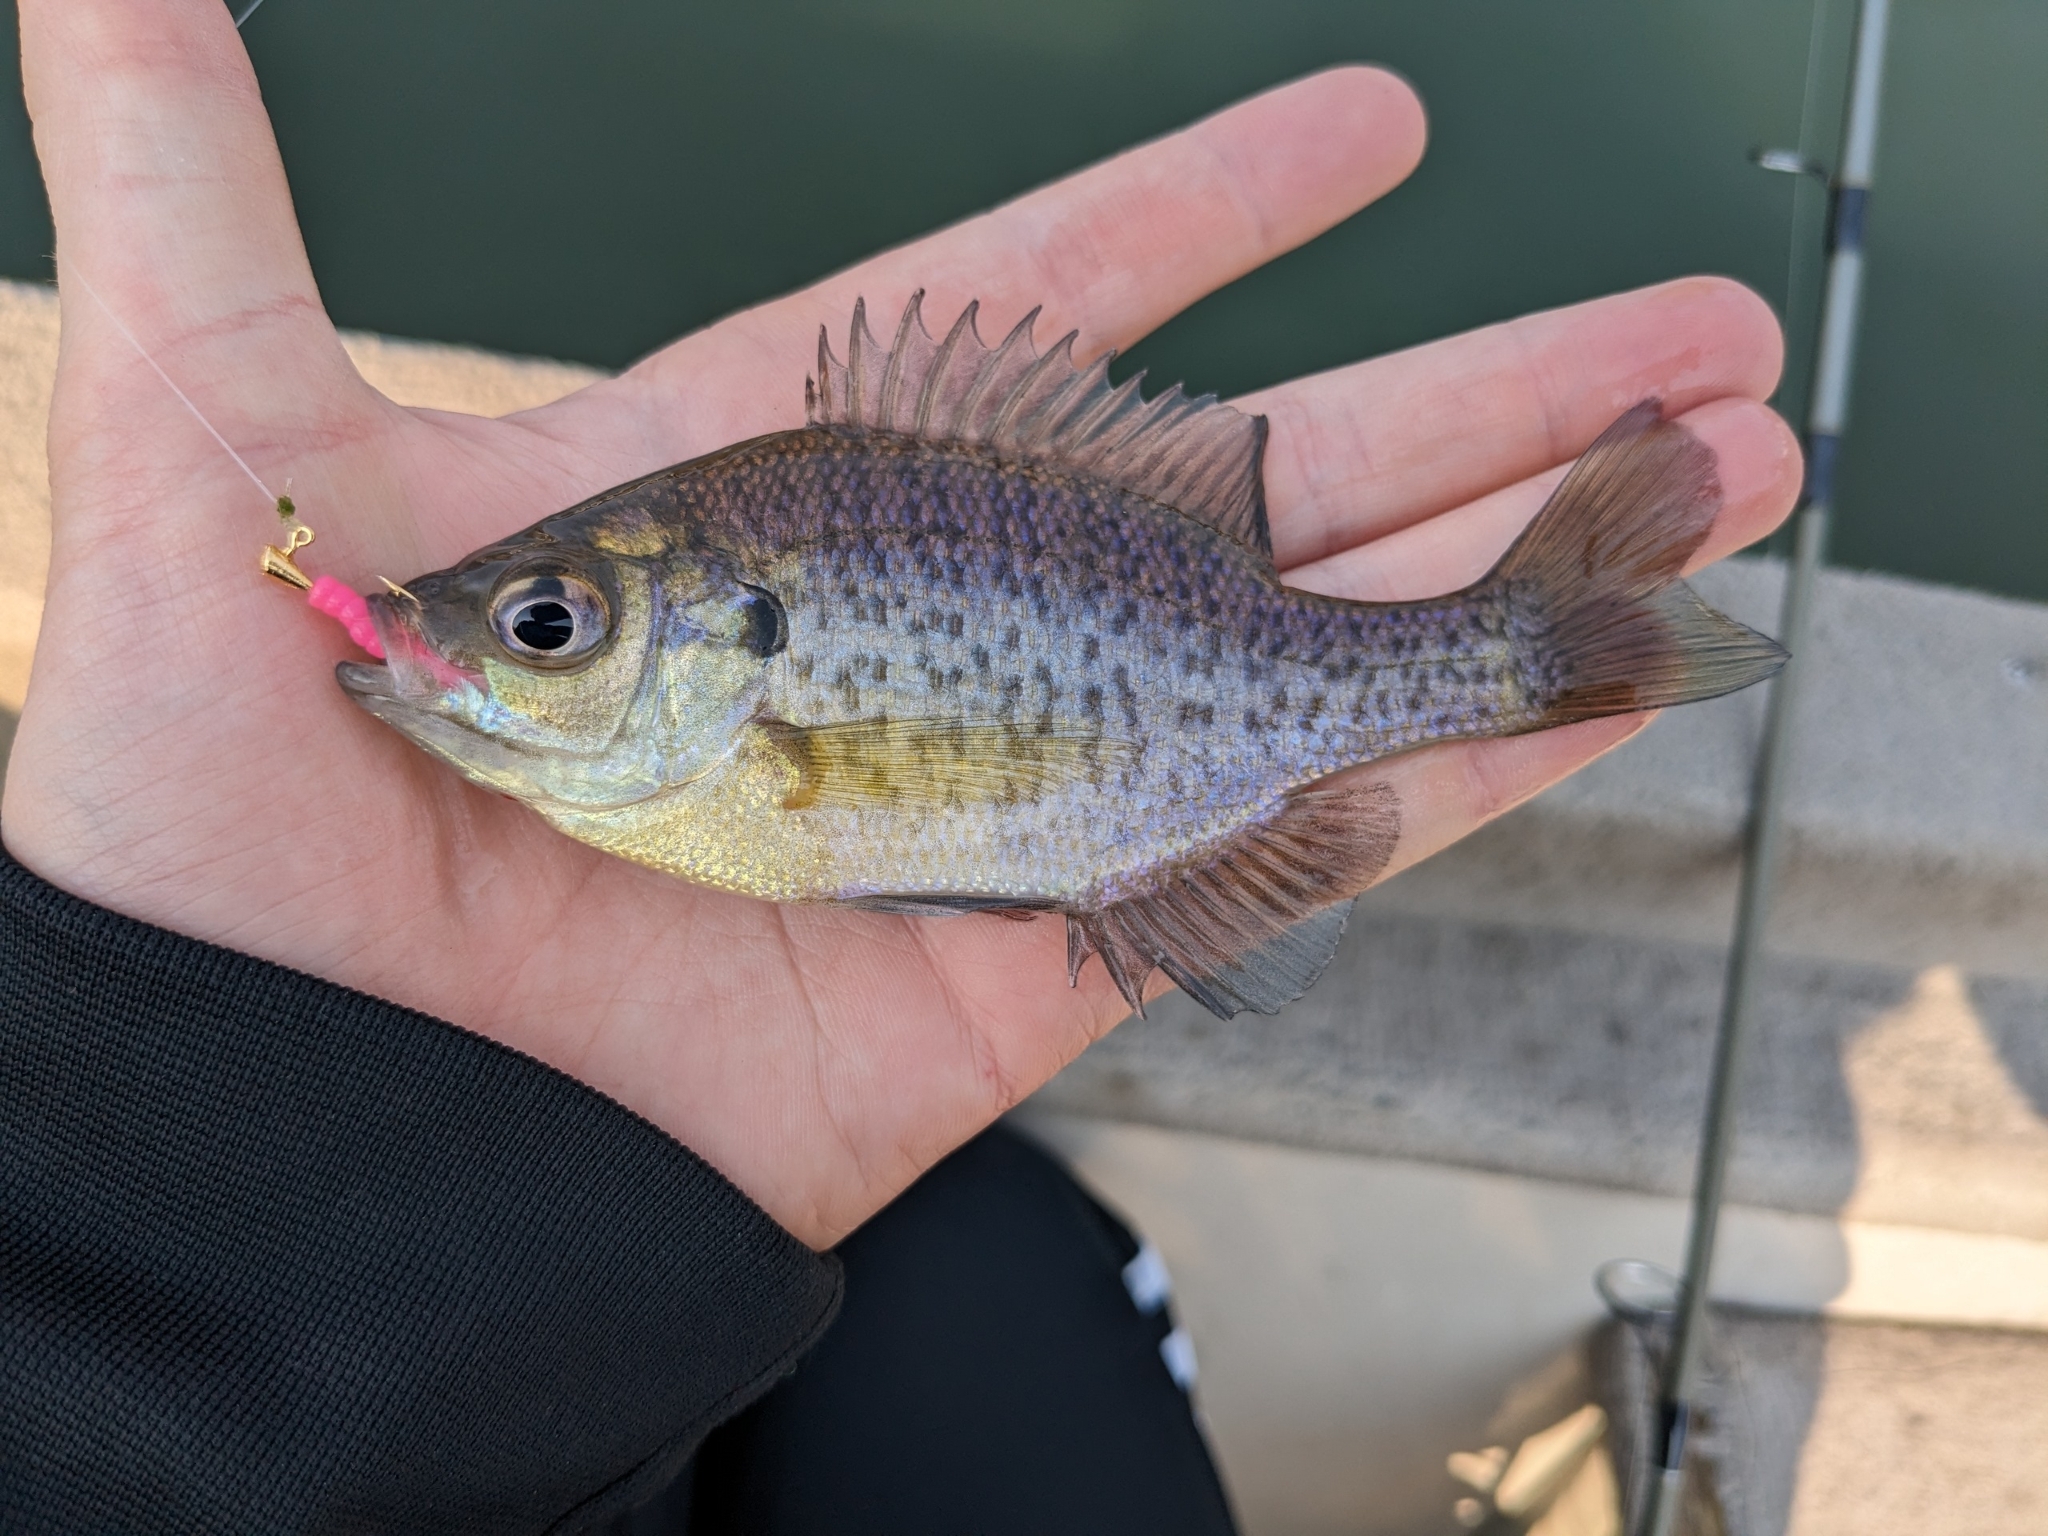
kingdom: Animalia
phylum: Chordata
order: Perciformes
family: Centrarchidae
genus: Lepomis
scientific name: Lepomis macrochirus
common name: Bluegill
